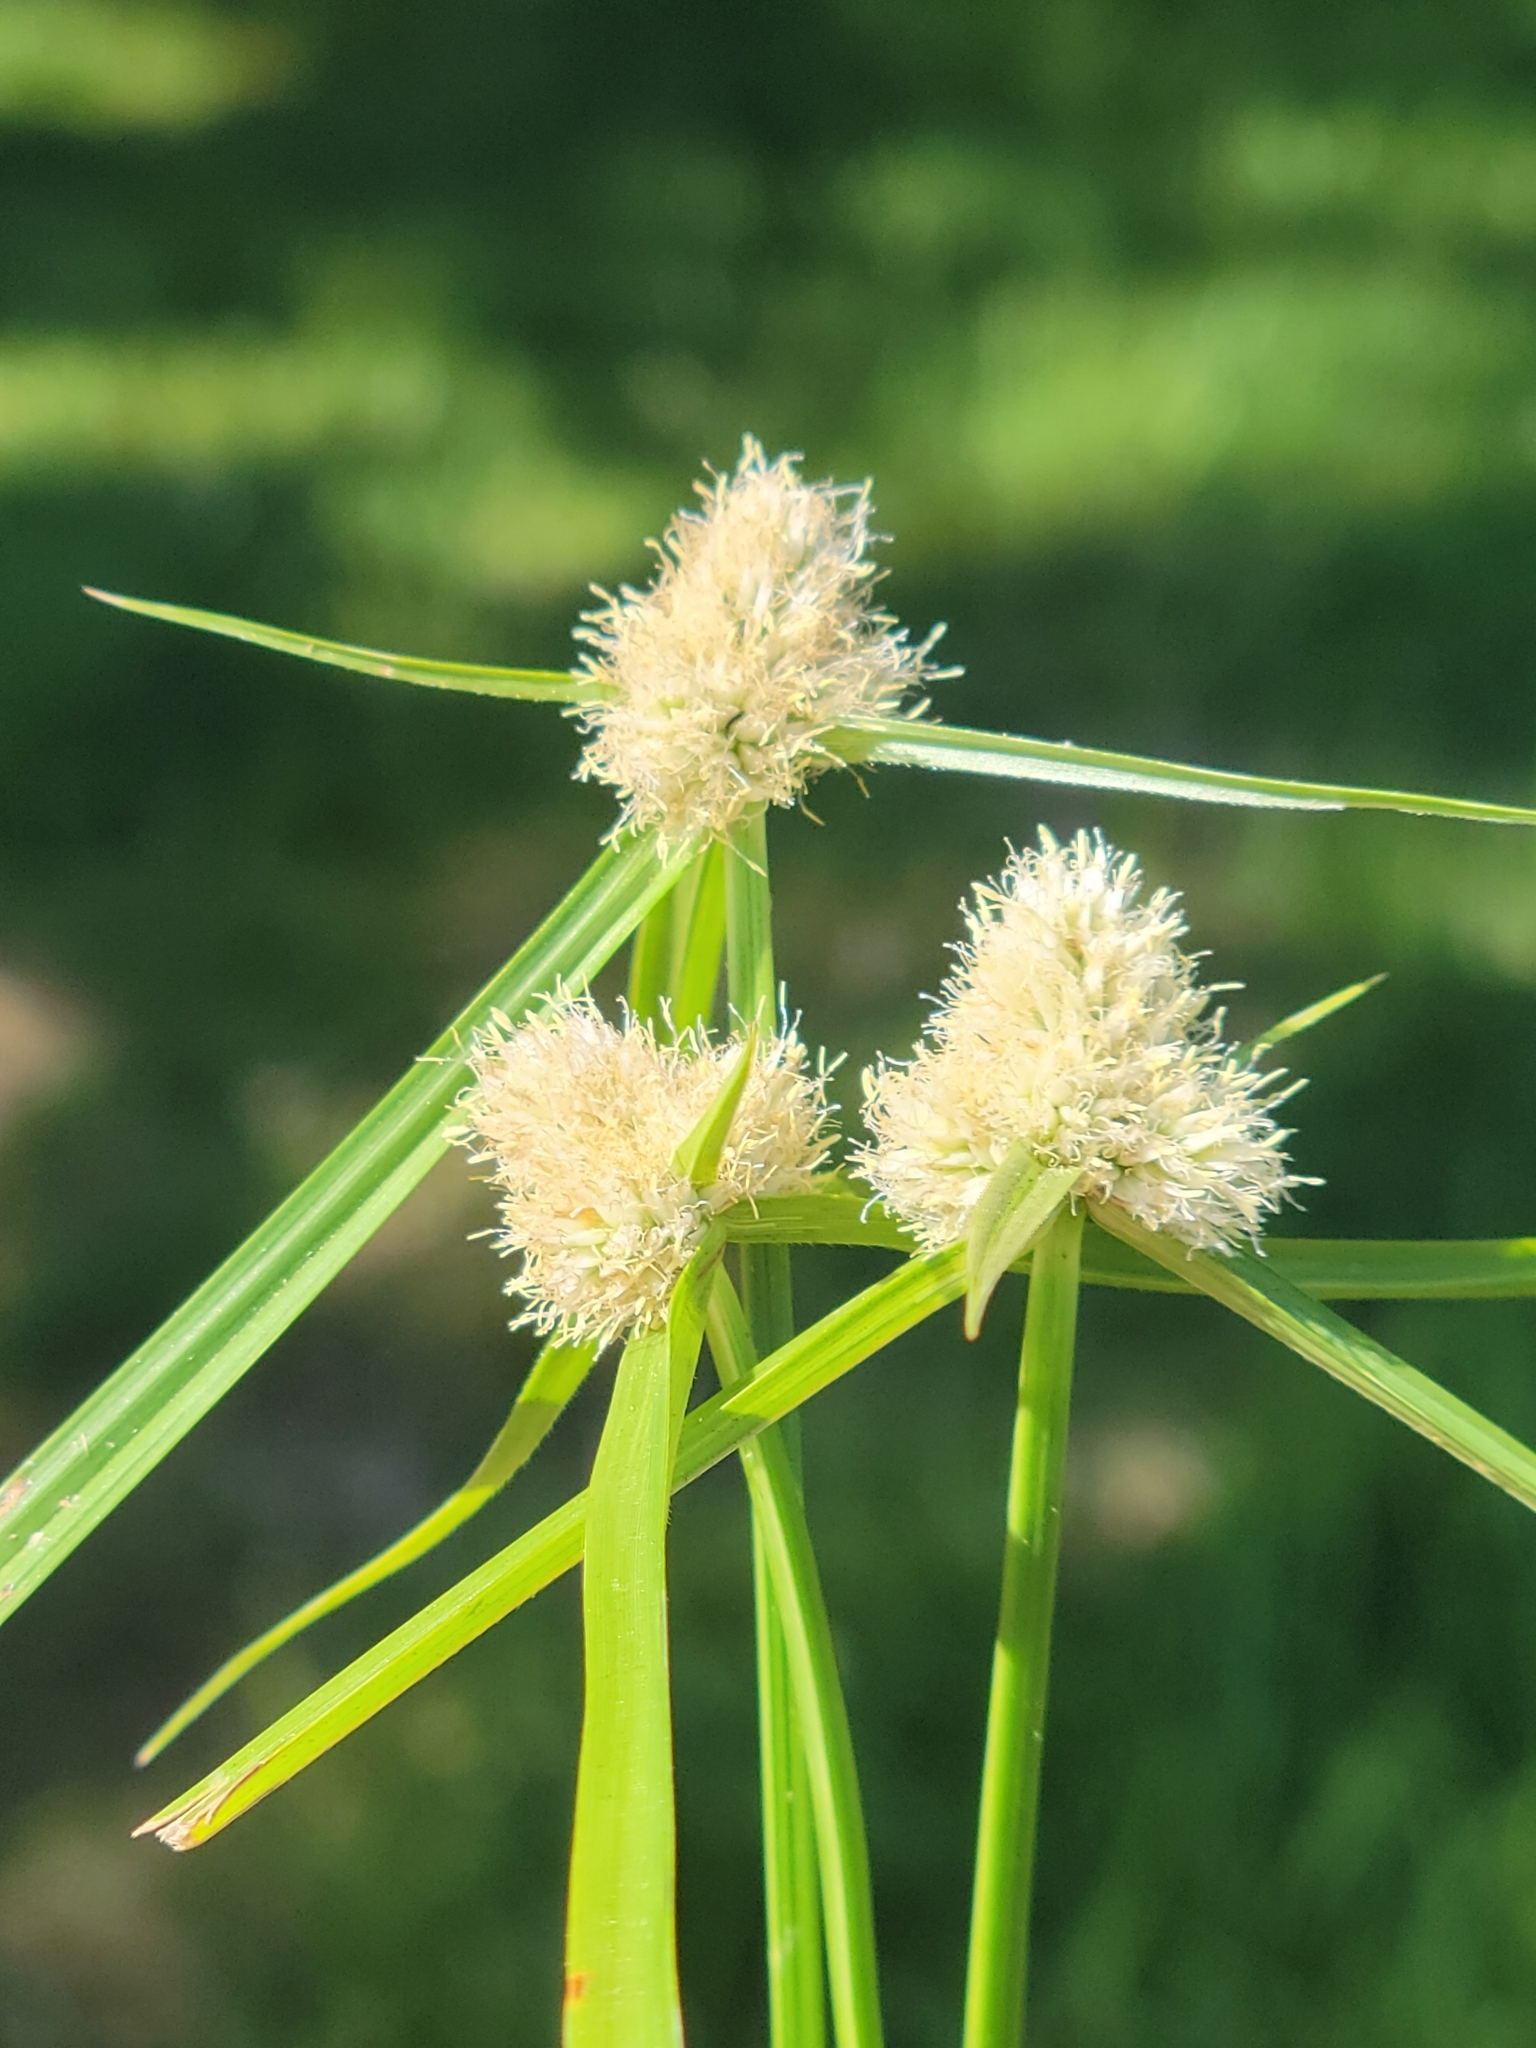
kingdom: Plantae
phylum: Tracheophyta
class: Liliopsida
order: Poales
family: Cyperaceae
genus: Cyperus
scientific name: Cyperus richardii
